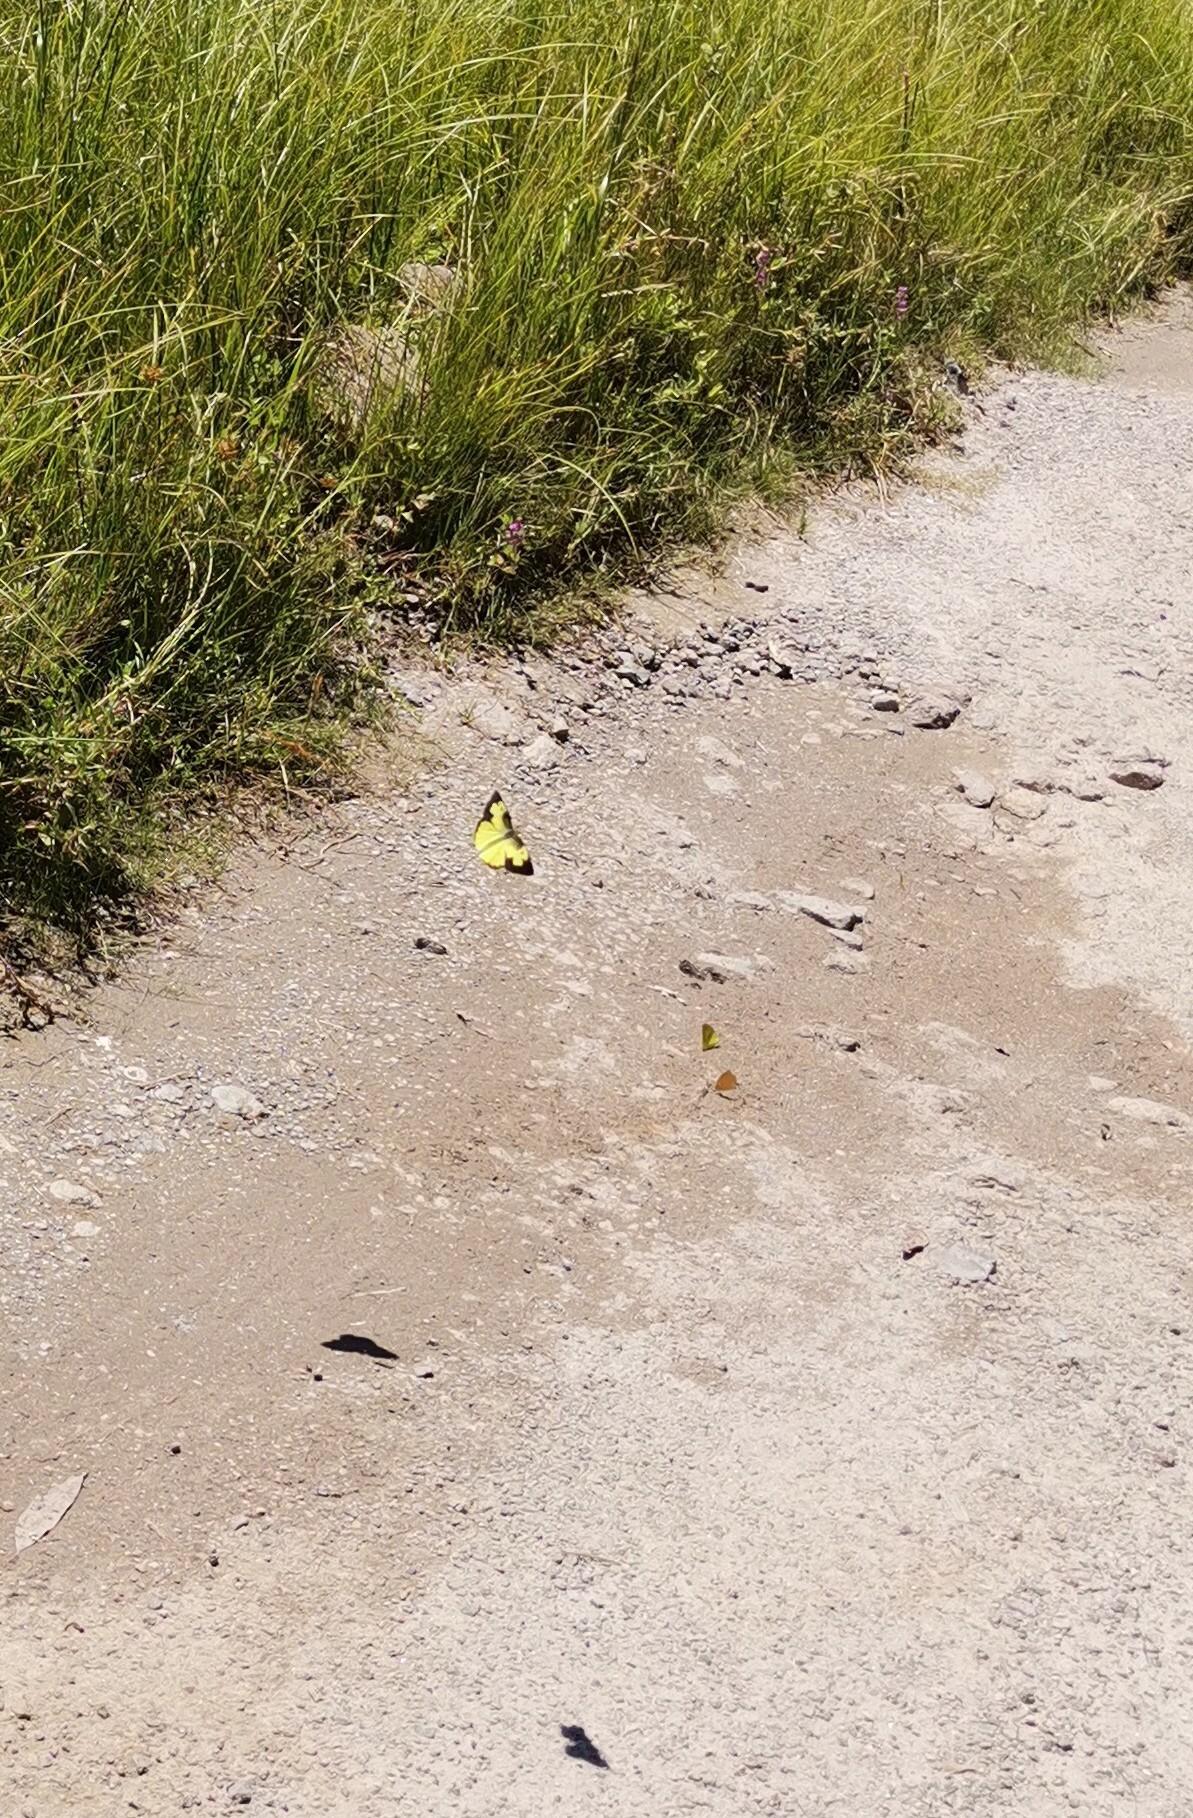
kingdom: Animalia
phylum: Arthropoda
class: Insecta
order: Lepidoptera
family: Pieridae
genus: Zerene
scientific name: Zerene cesonia
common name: Southern dogface
